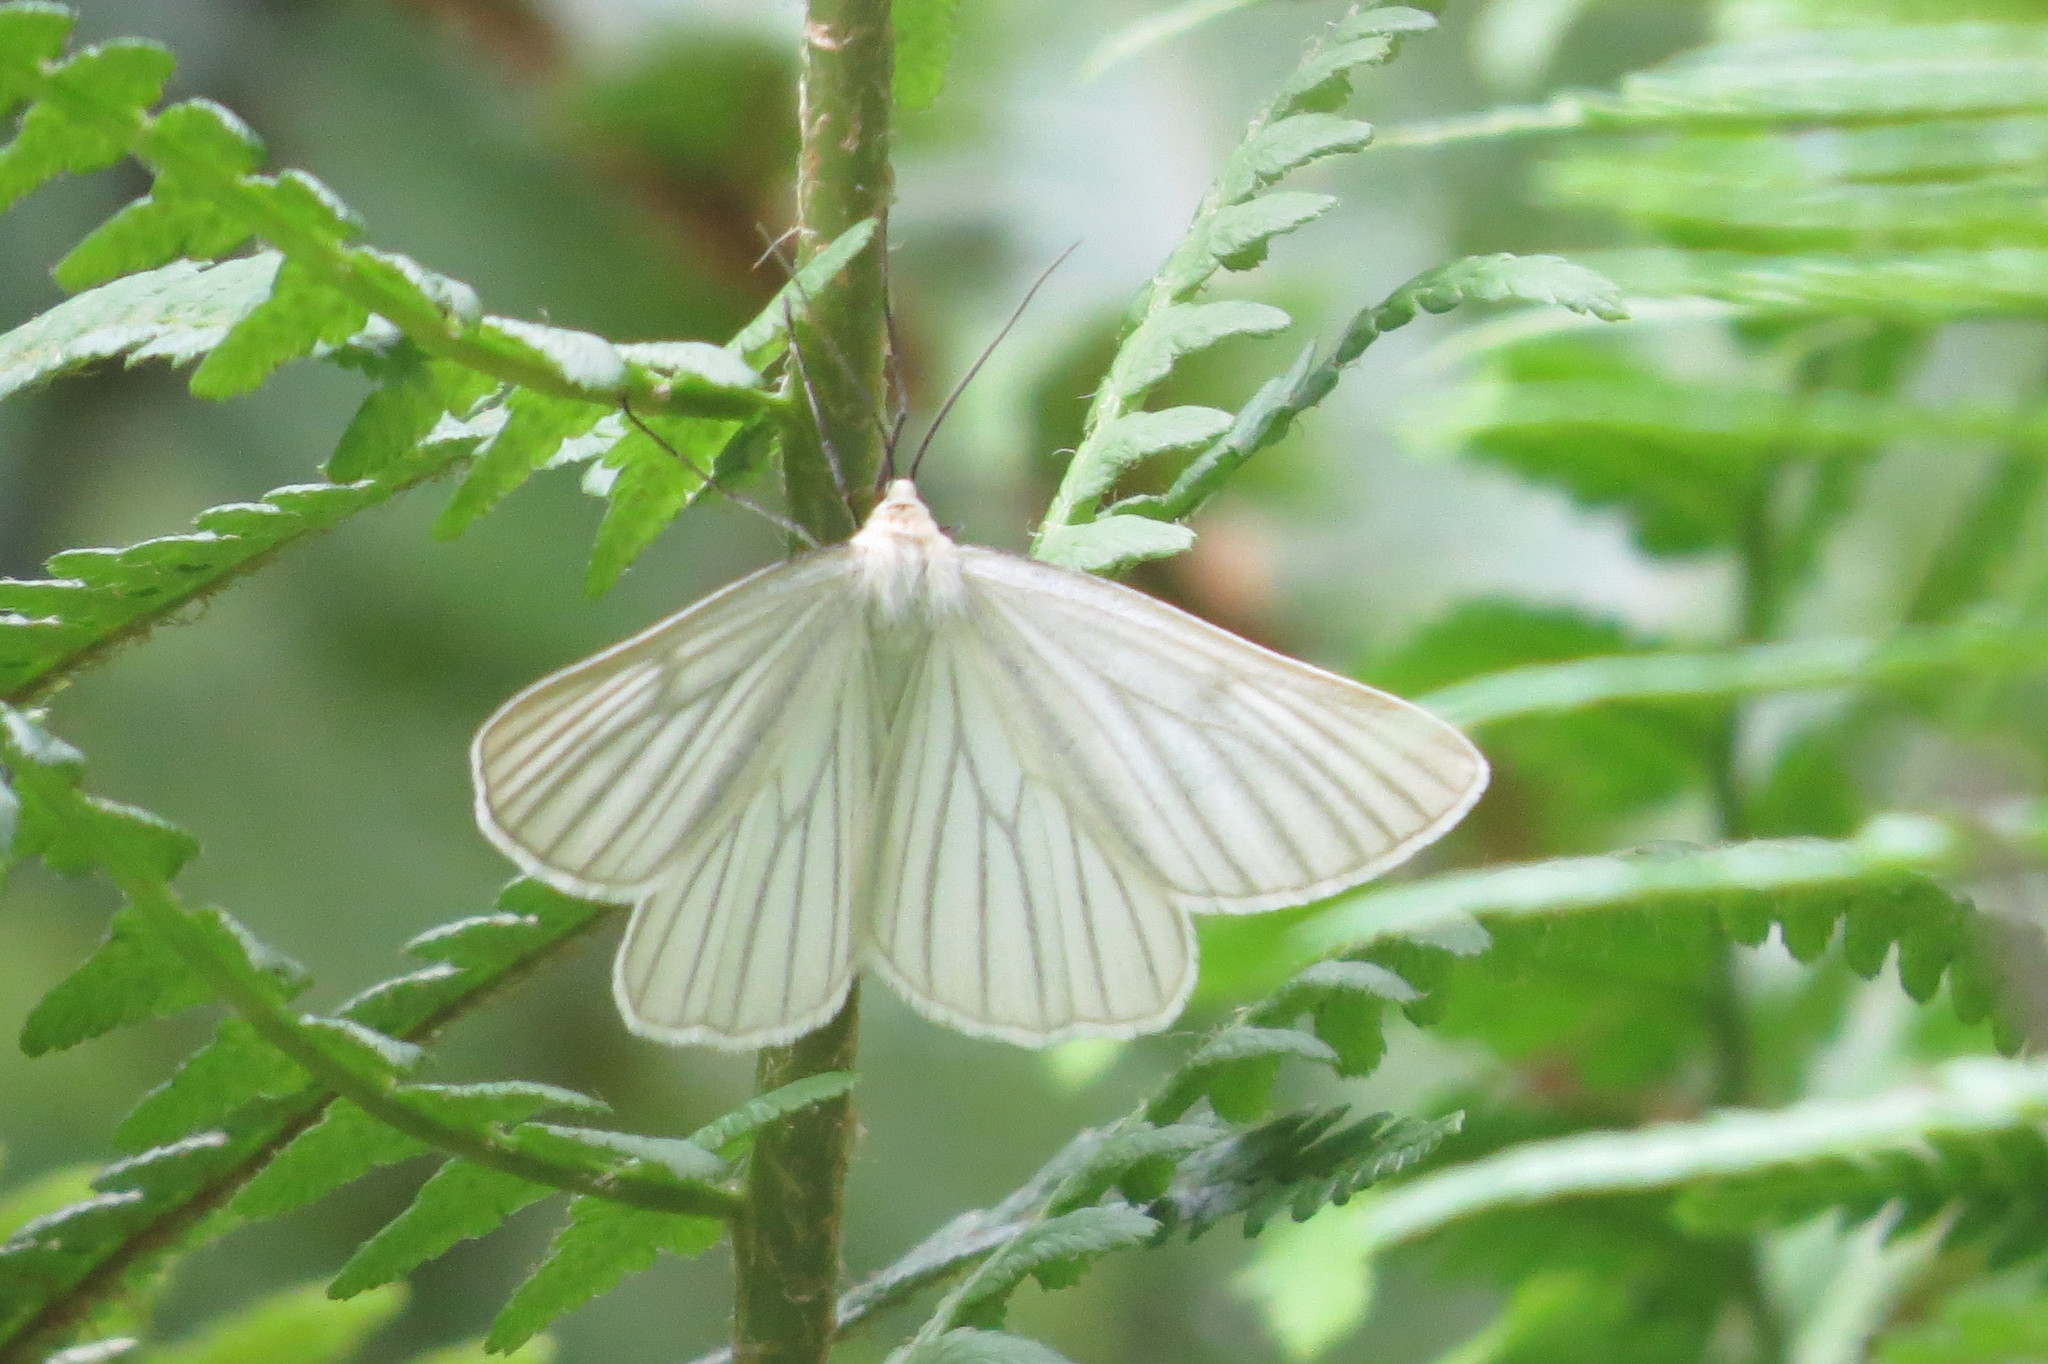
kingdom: Animalia
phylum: Arthropoda
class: Insecta
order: Lepidoptera
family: Geometridae
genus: Siona
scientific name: Siona lineata
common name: Black-veined moth
